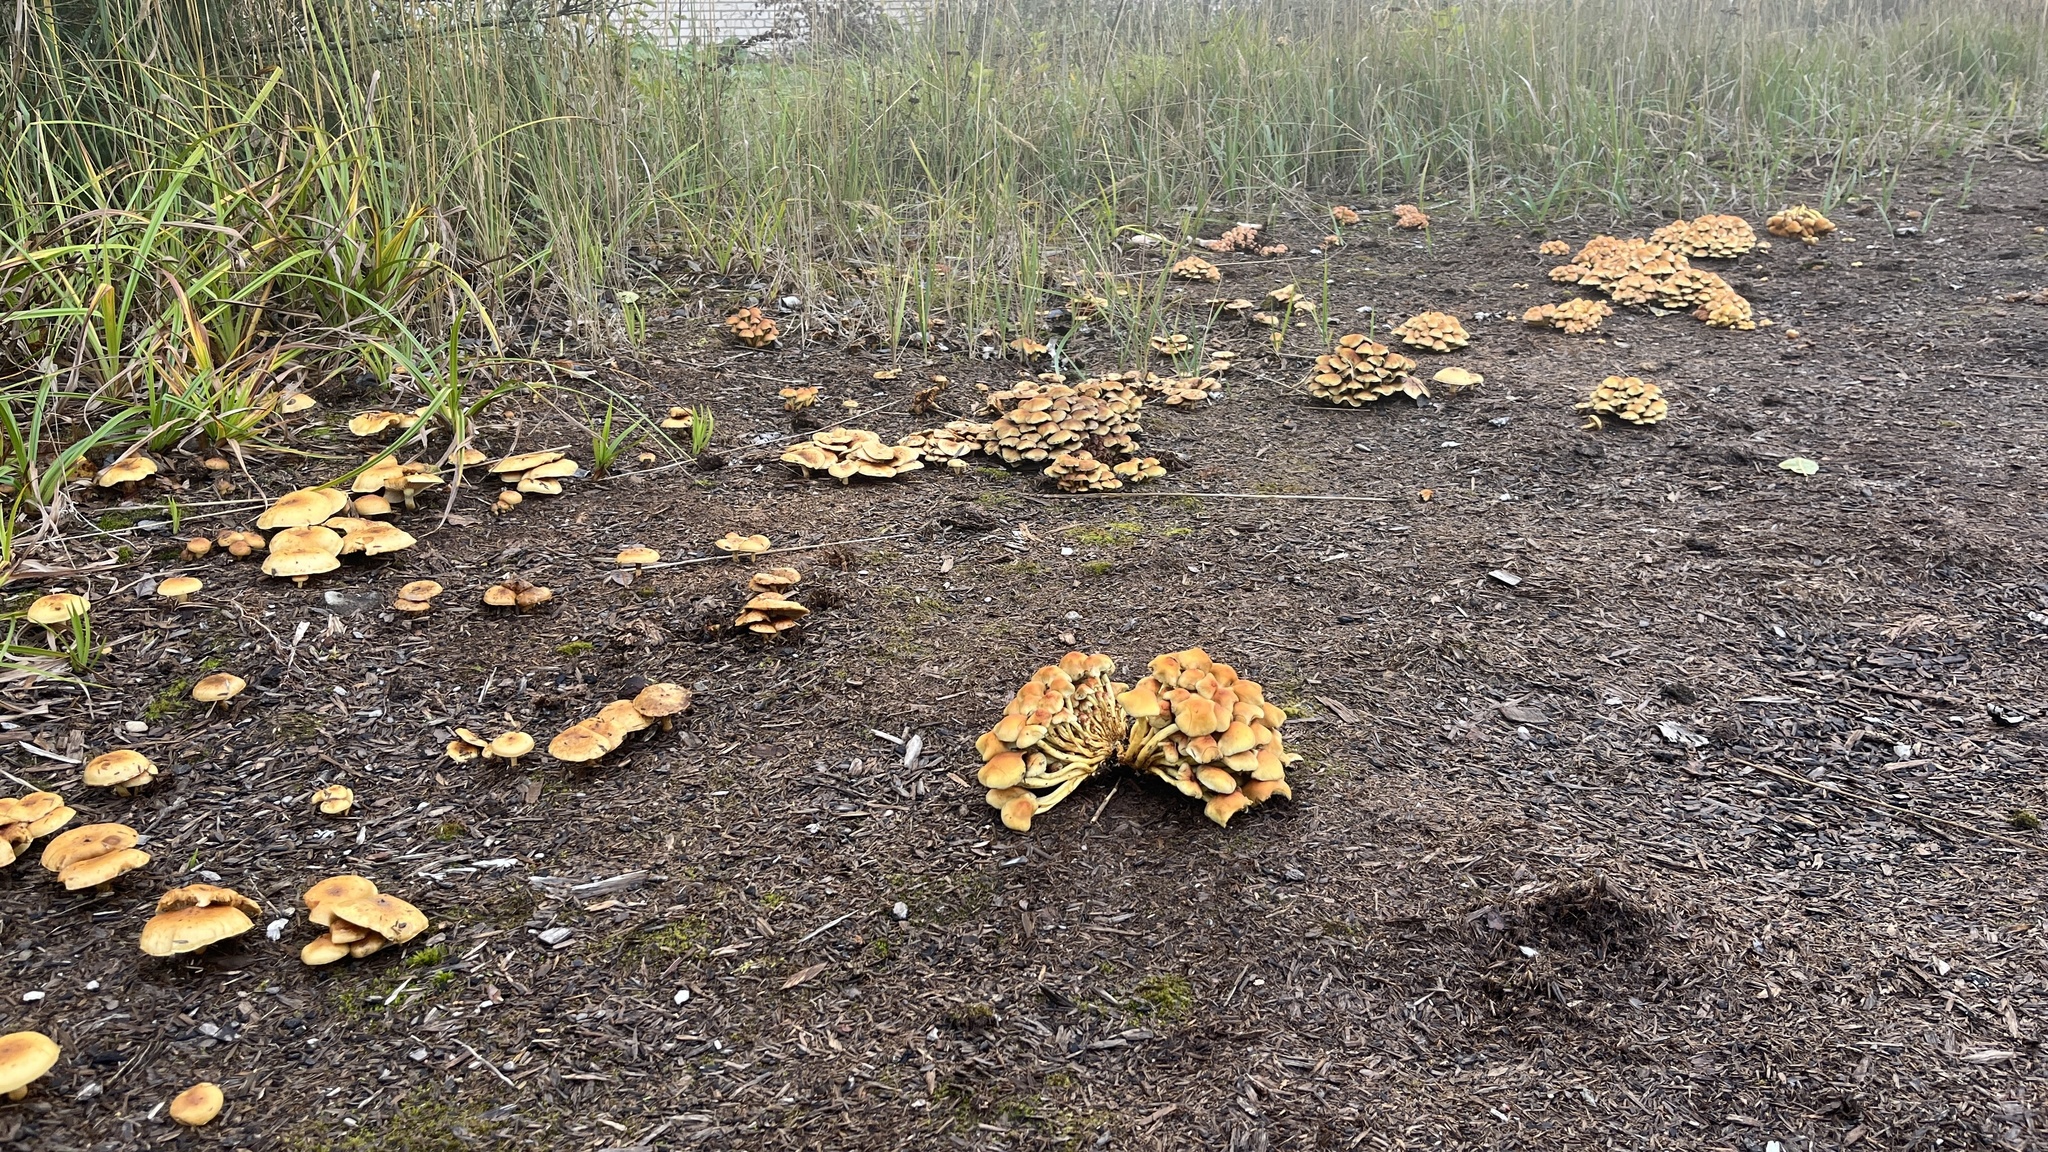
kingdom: Fungi
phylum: Basidiomycota
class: Agaricomycetes
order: Agaricales
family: Strophariaceae
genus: Hypholoma
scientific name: Hypholoma fasciculare
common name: Sulphur tuft
